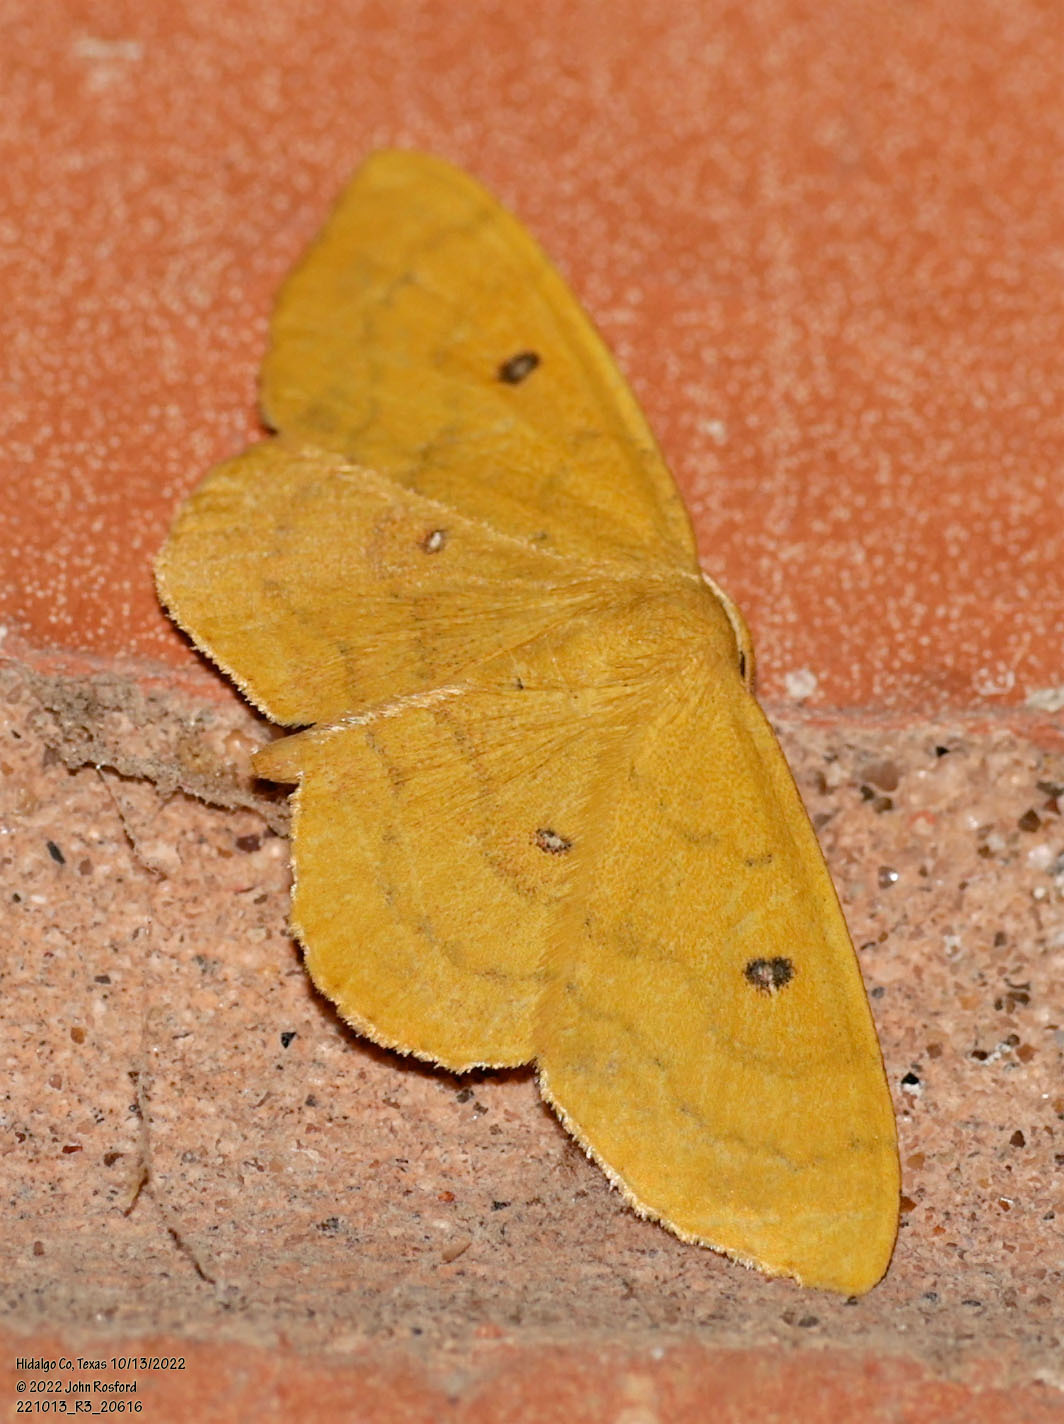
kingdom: Animalia
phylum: Arthropoda
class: Insecta
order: Lepidoptera
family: Geometridae
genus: Semaeopus
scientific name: Semaeopus ella
